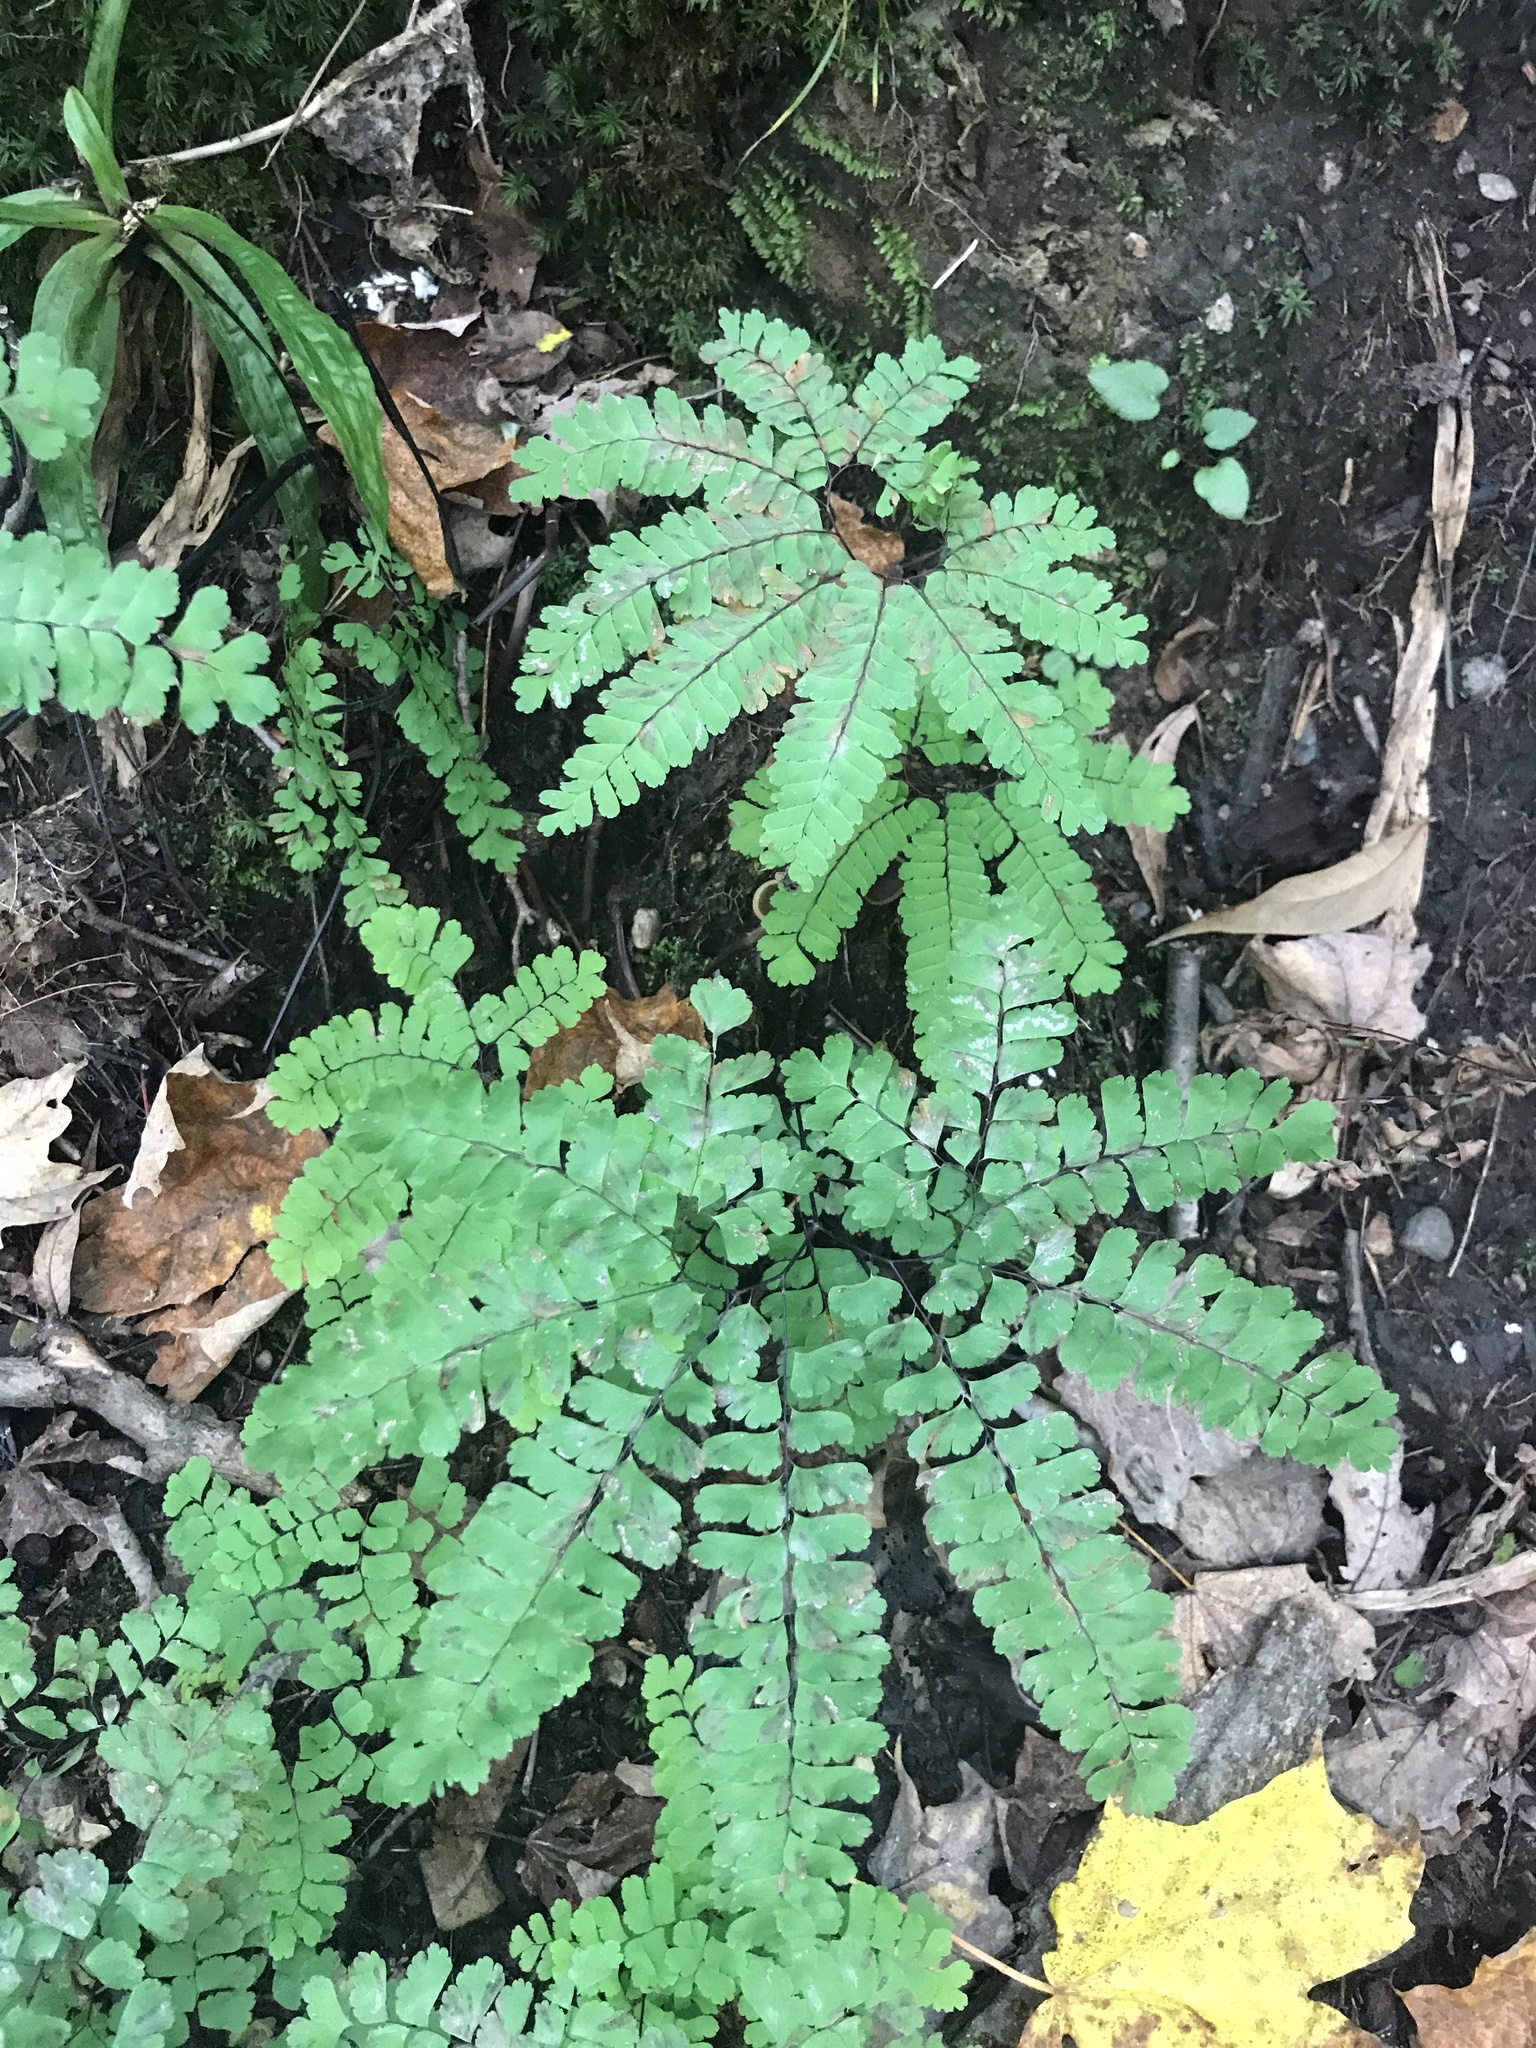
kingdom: Plantae
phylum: Tracheophyta
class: Polypodiopsida
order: Polypodiales
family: Pteridaceae
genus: Adiantum
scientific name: Adiantum pedatum
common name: Five-finger fern
